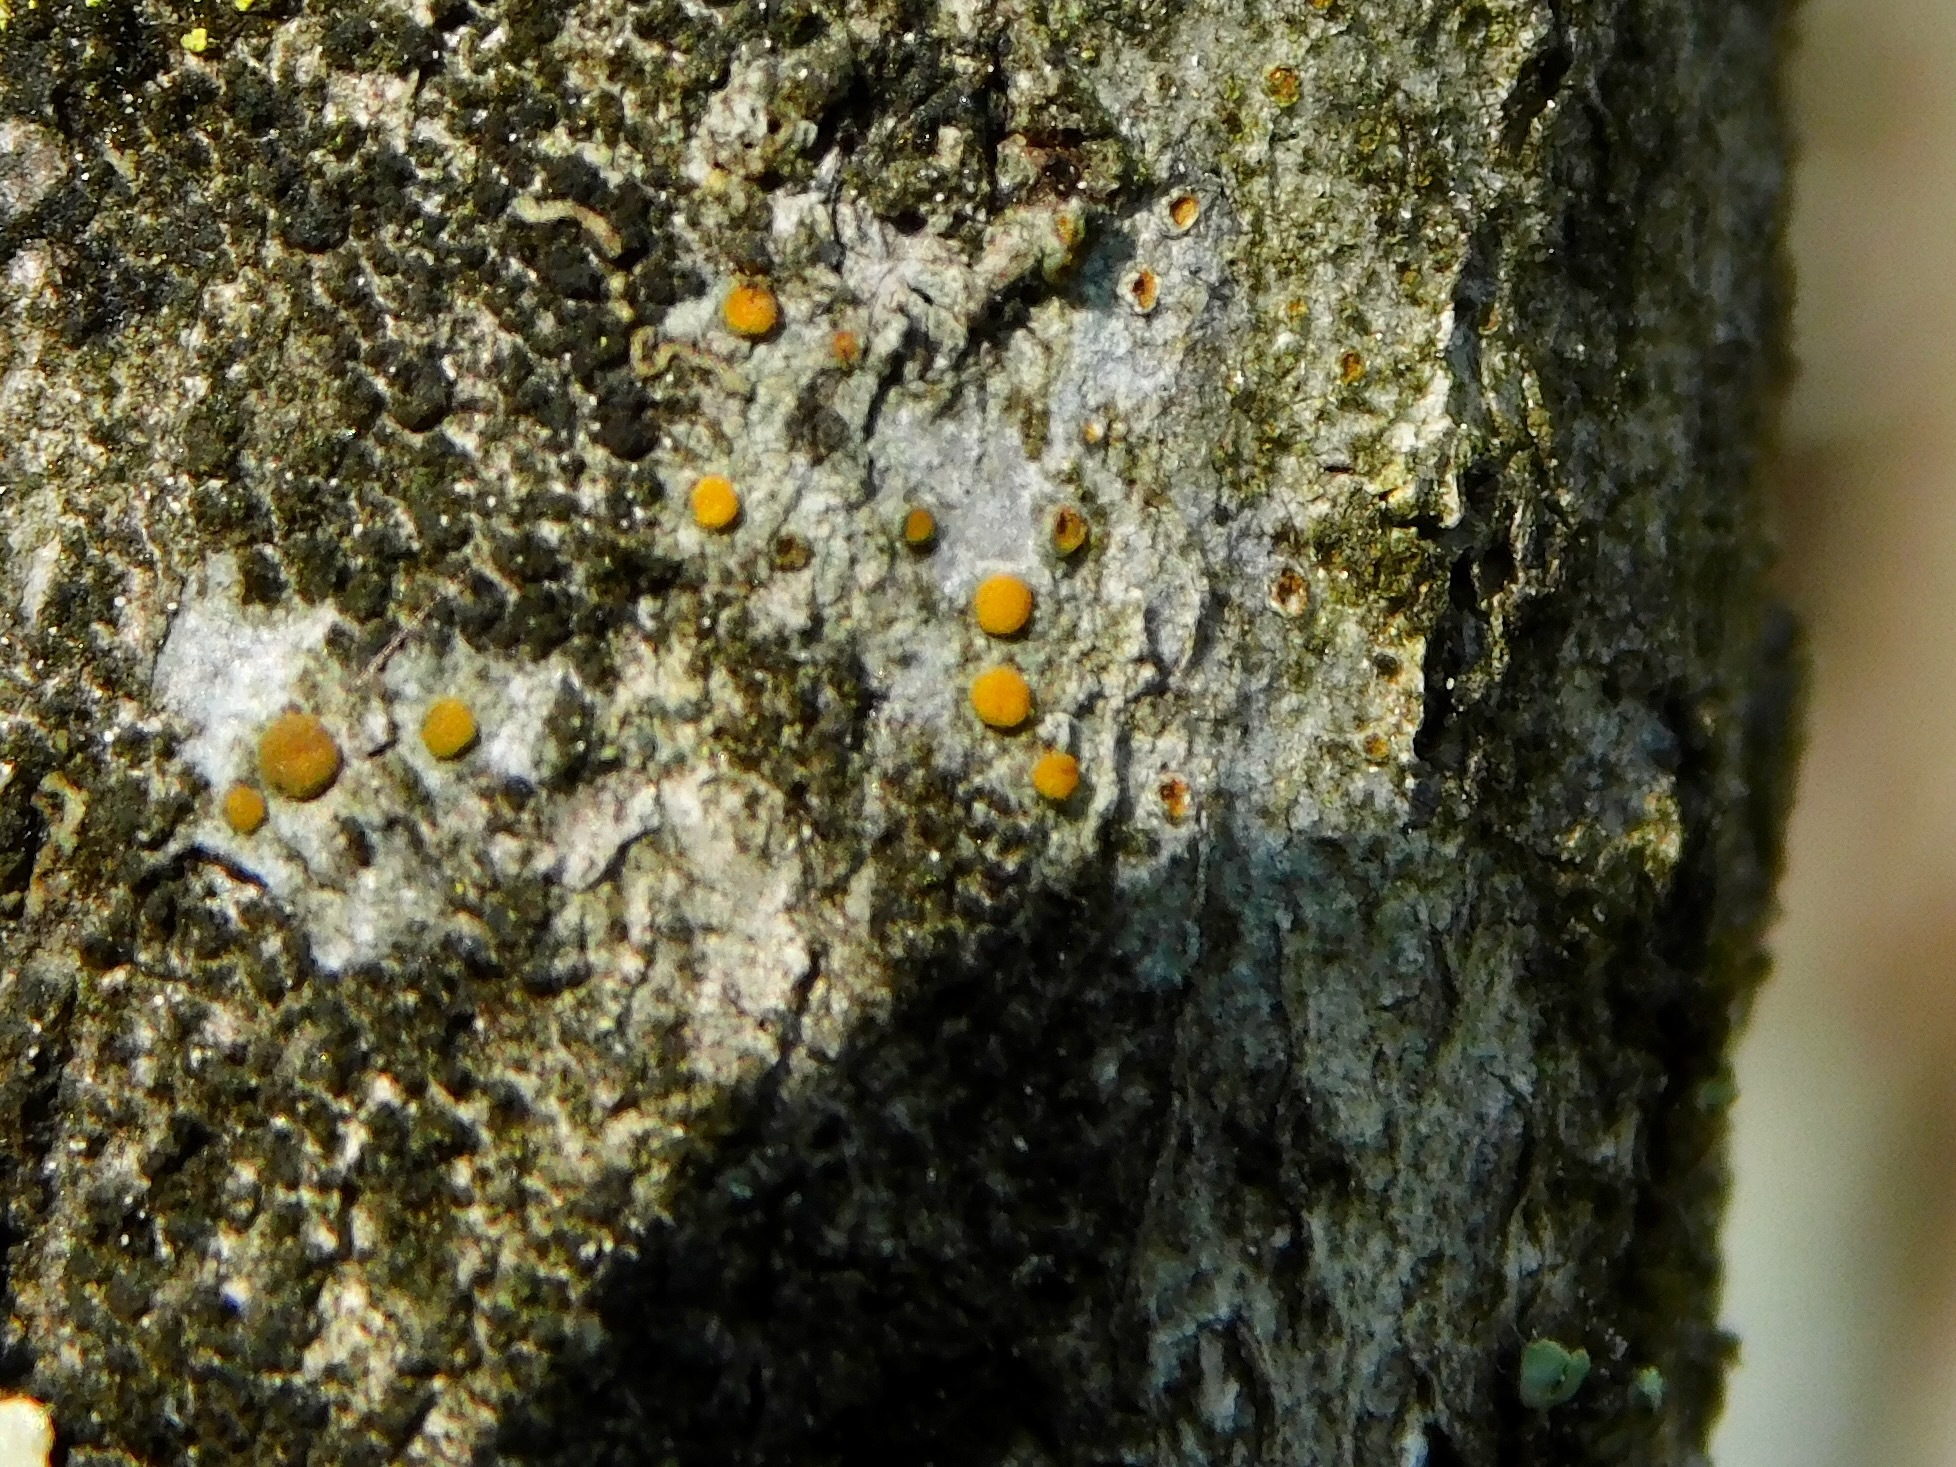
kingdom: Fungi
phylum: Ascomycota
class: Lecanoromycetes
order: Teloschistales
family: Teloschistaceae
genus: Athallia
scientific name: Athallia holocarpa
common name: Firedot lichen
